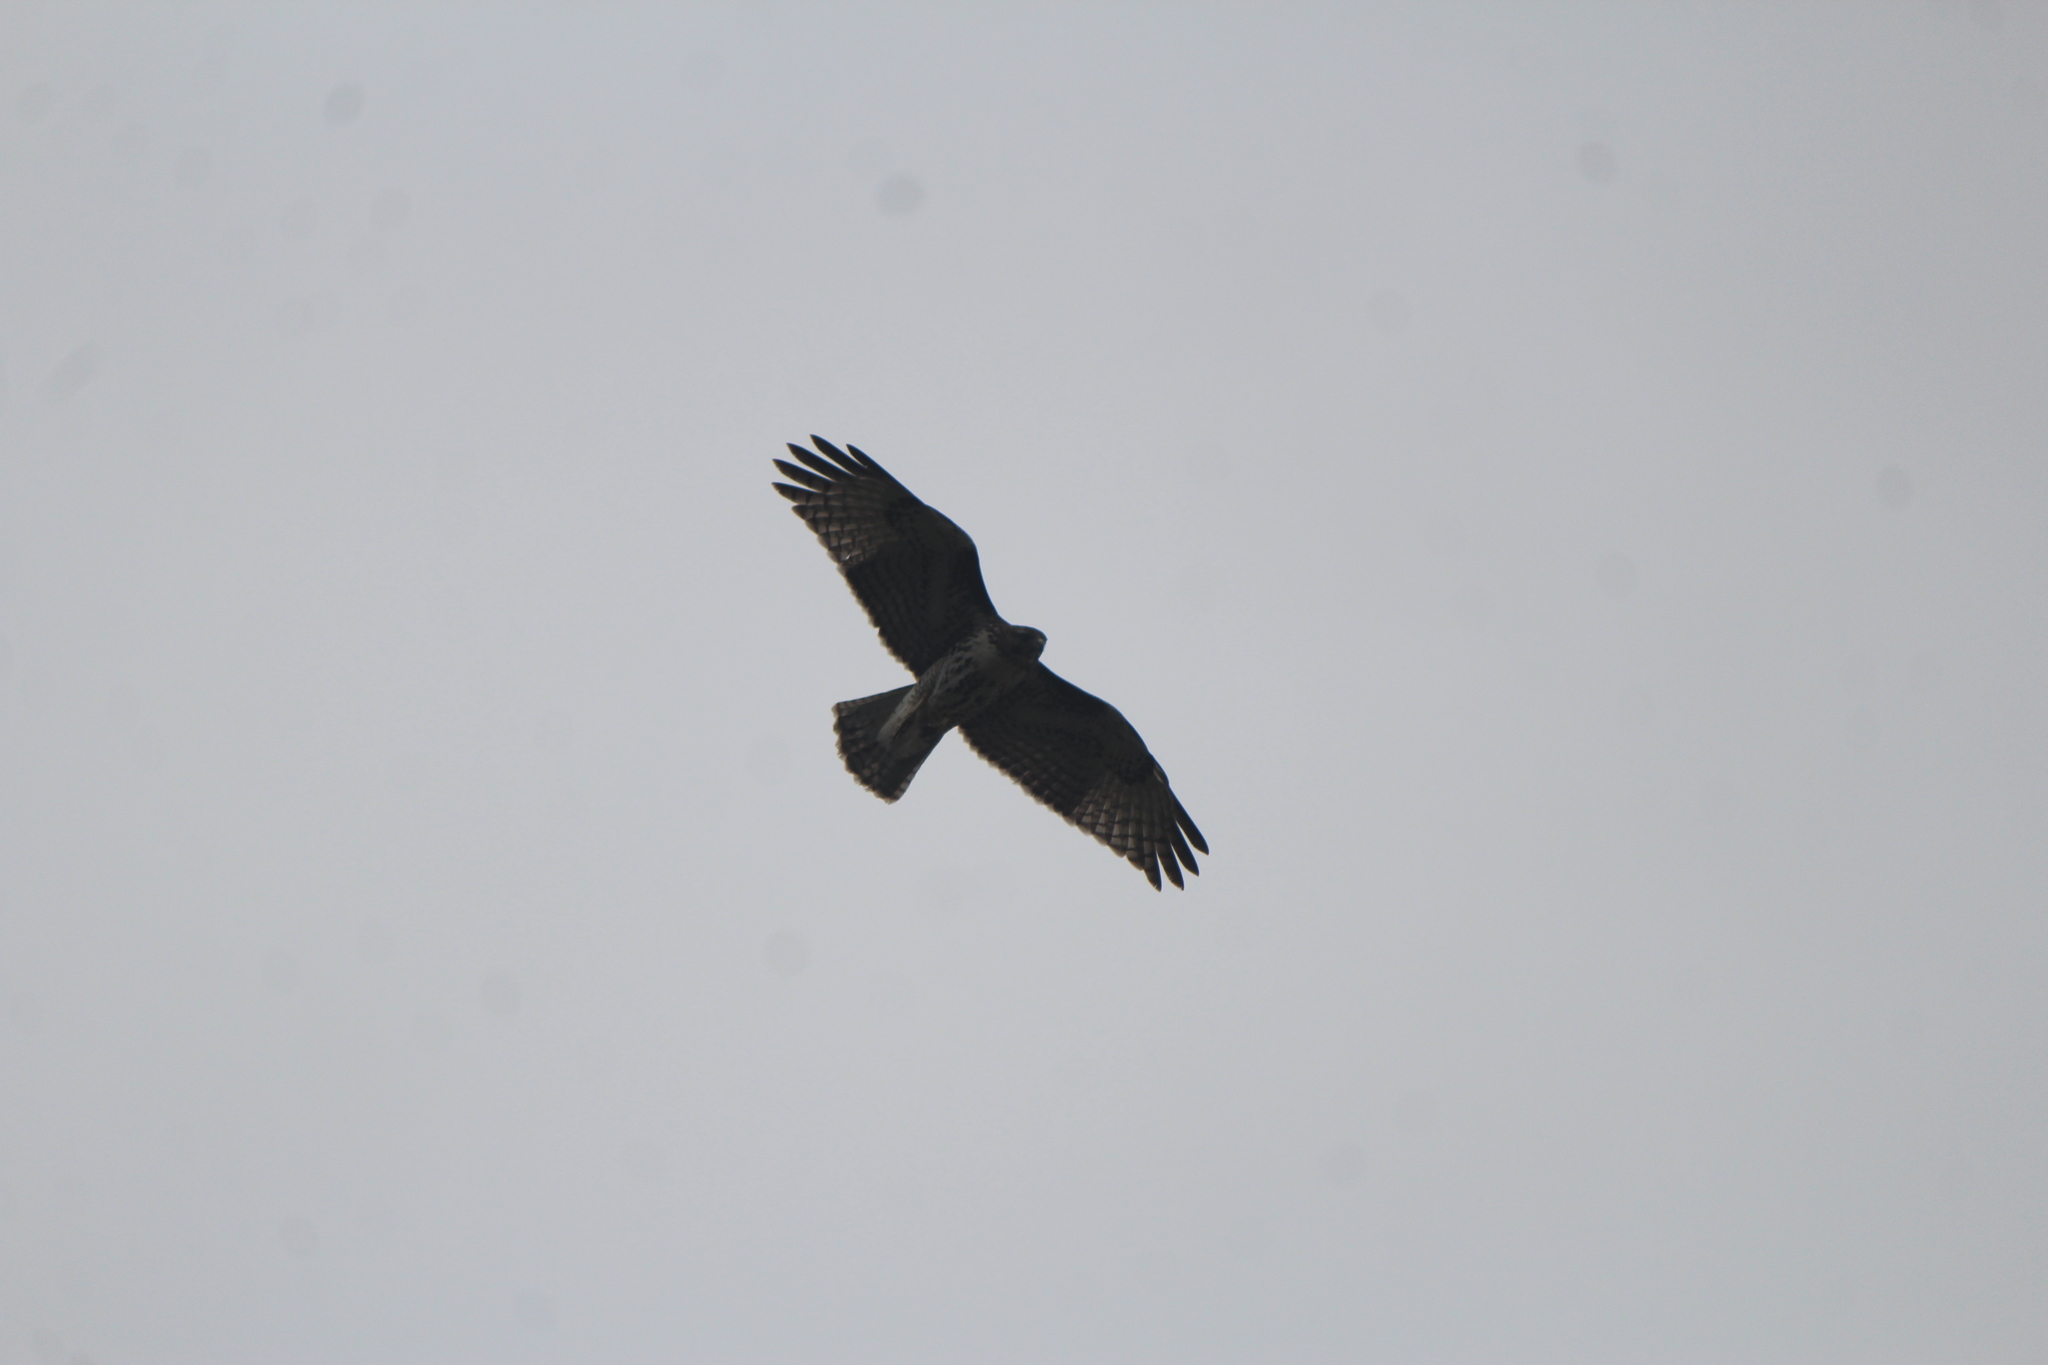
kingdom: Animalia
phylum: Chordata
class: Aves
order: Accipitriformes
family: Accipitridae
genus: Buteo
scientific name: Buteo jamaicensis
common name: Red-tailed hawk
